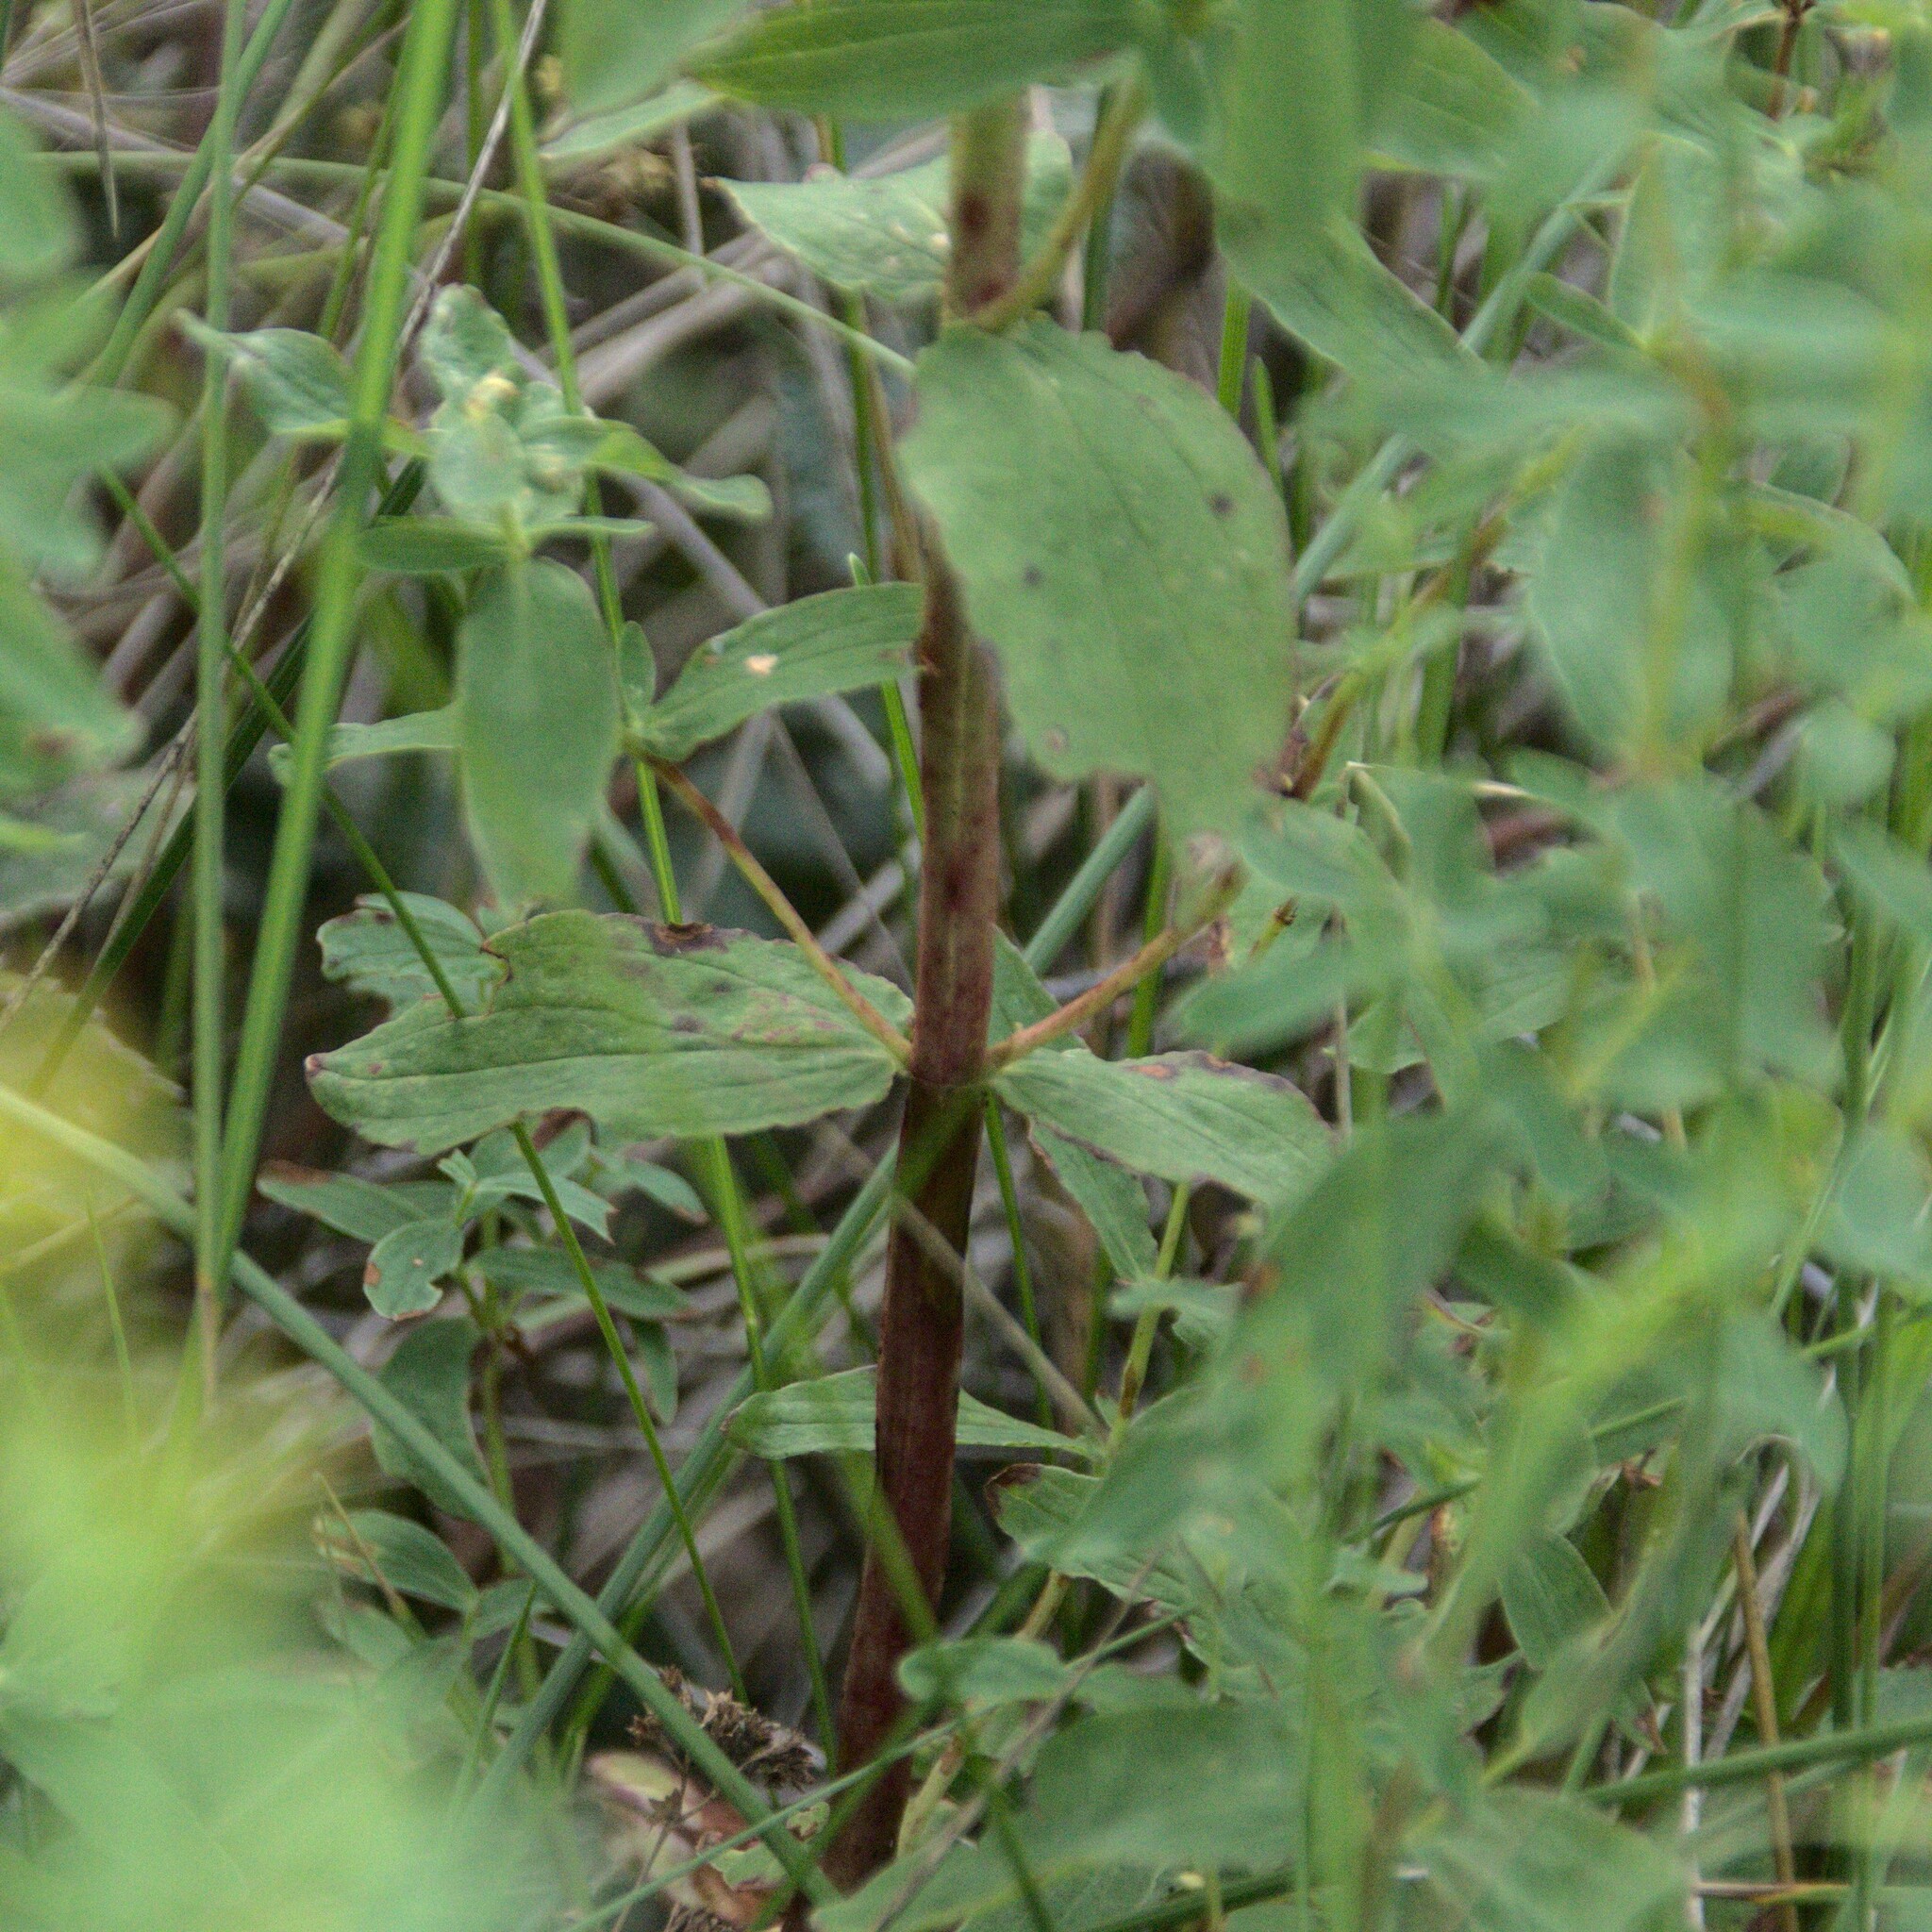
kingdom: Plantae
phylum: Tracheophyta
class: Magnoliopsida
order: Malpighiales
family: Hypericaceae
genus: Hypericum
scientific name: Hypericum maculatum
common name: Imperforate st. john's-wort
